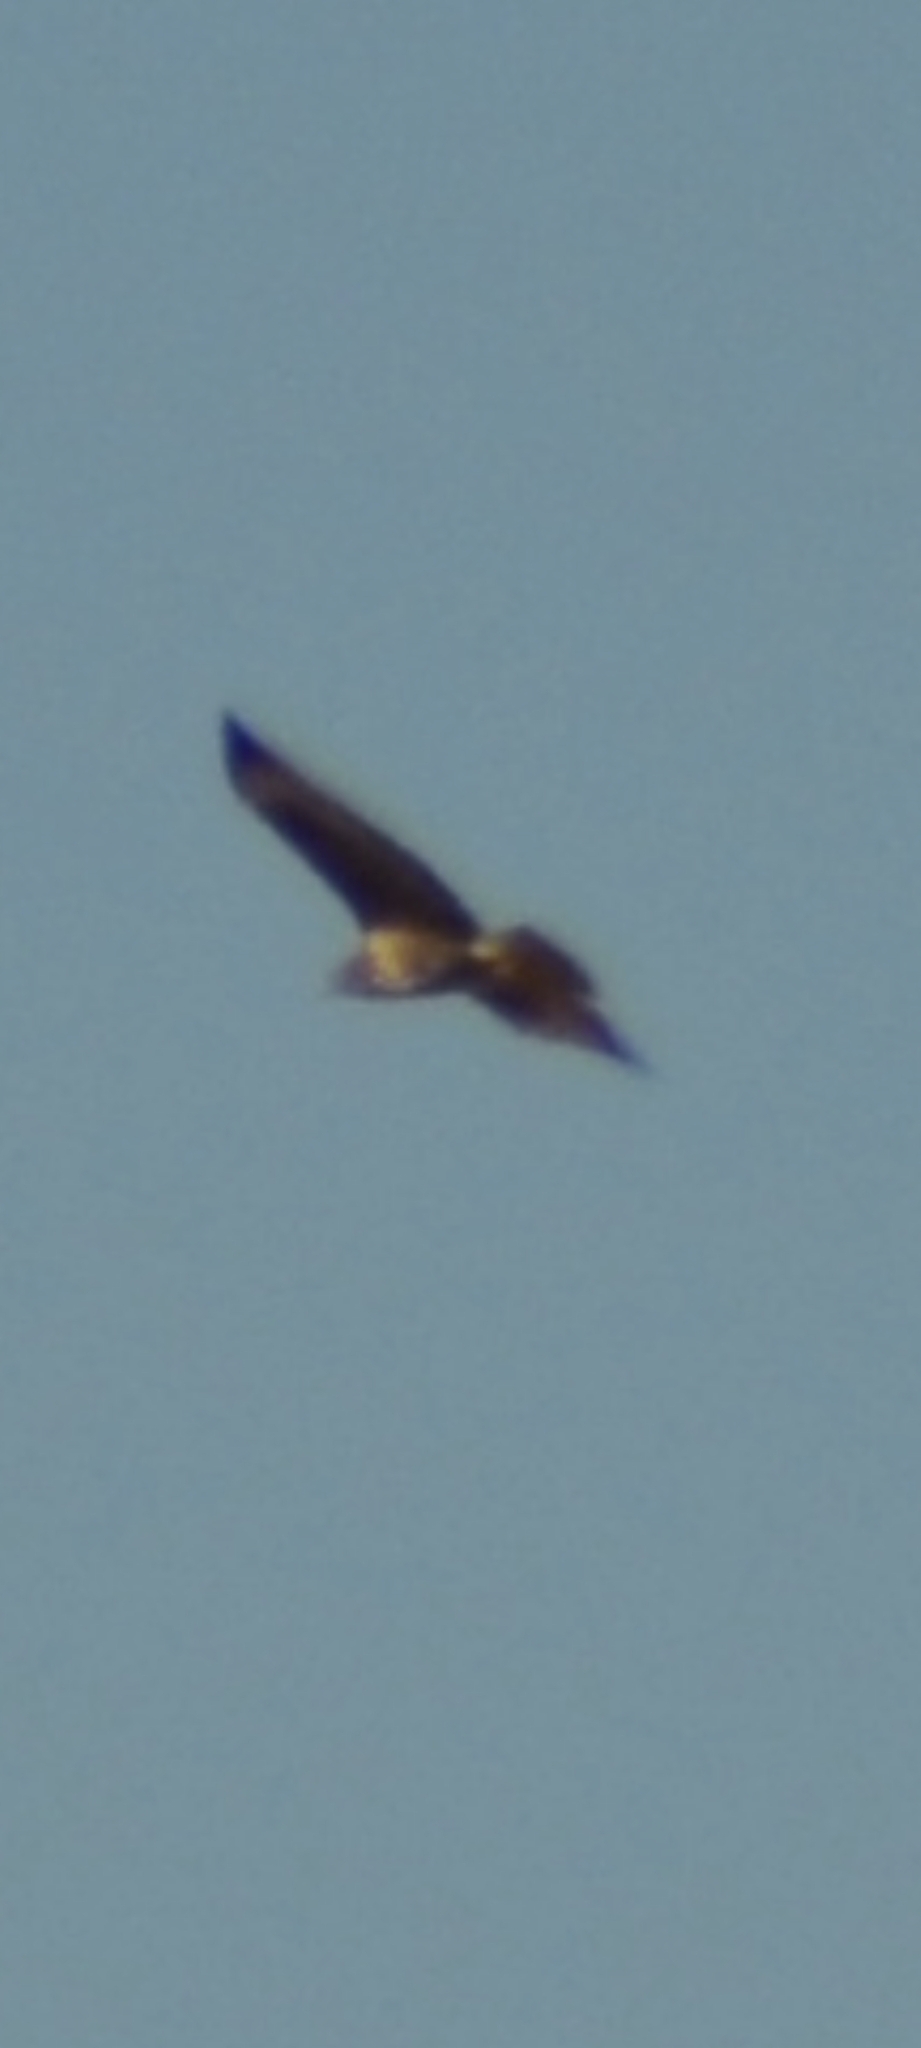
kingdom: Animalia
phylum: Chordata
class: Aves
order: Accipitriformes
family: Accipitridae
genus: Buteo
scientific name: Buteo buteo
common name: Common buzzard
